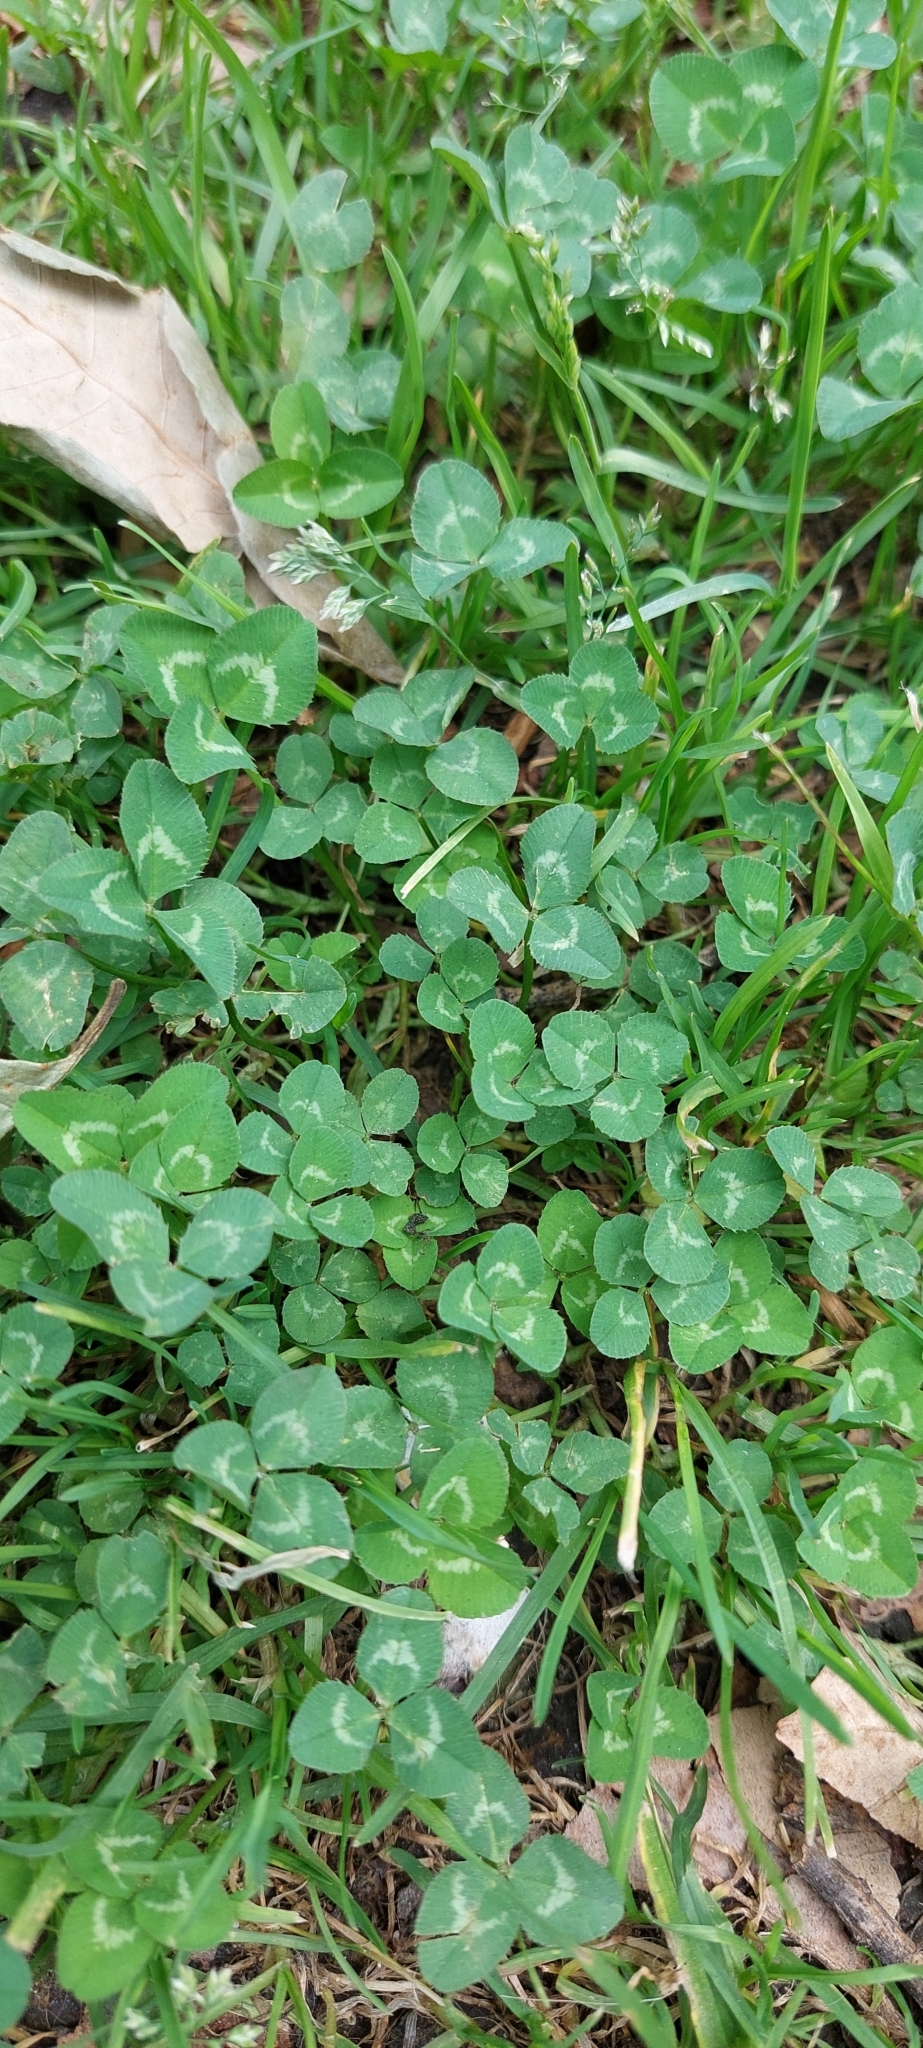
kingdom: Plantae
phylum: Tracheophyta
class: Magnoliopsida
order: Fabales
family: Fabaceae
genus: Trifolium
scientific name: Trifolium repens
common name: White clover
